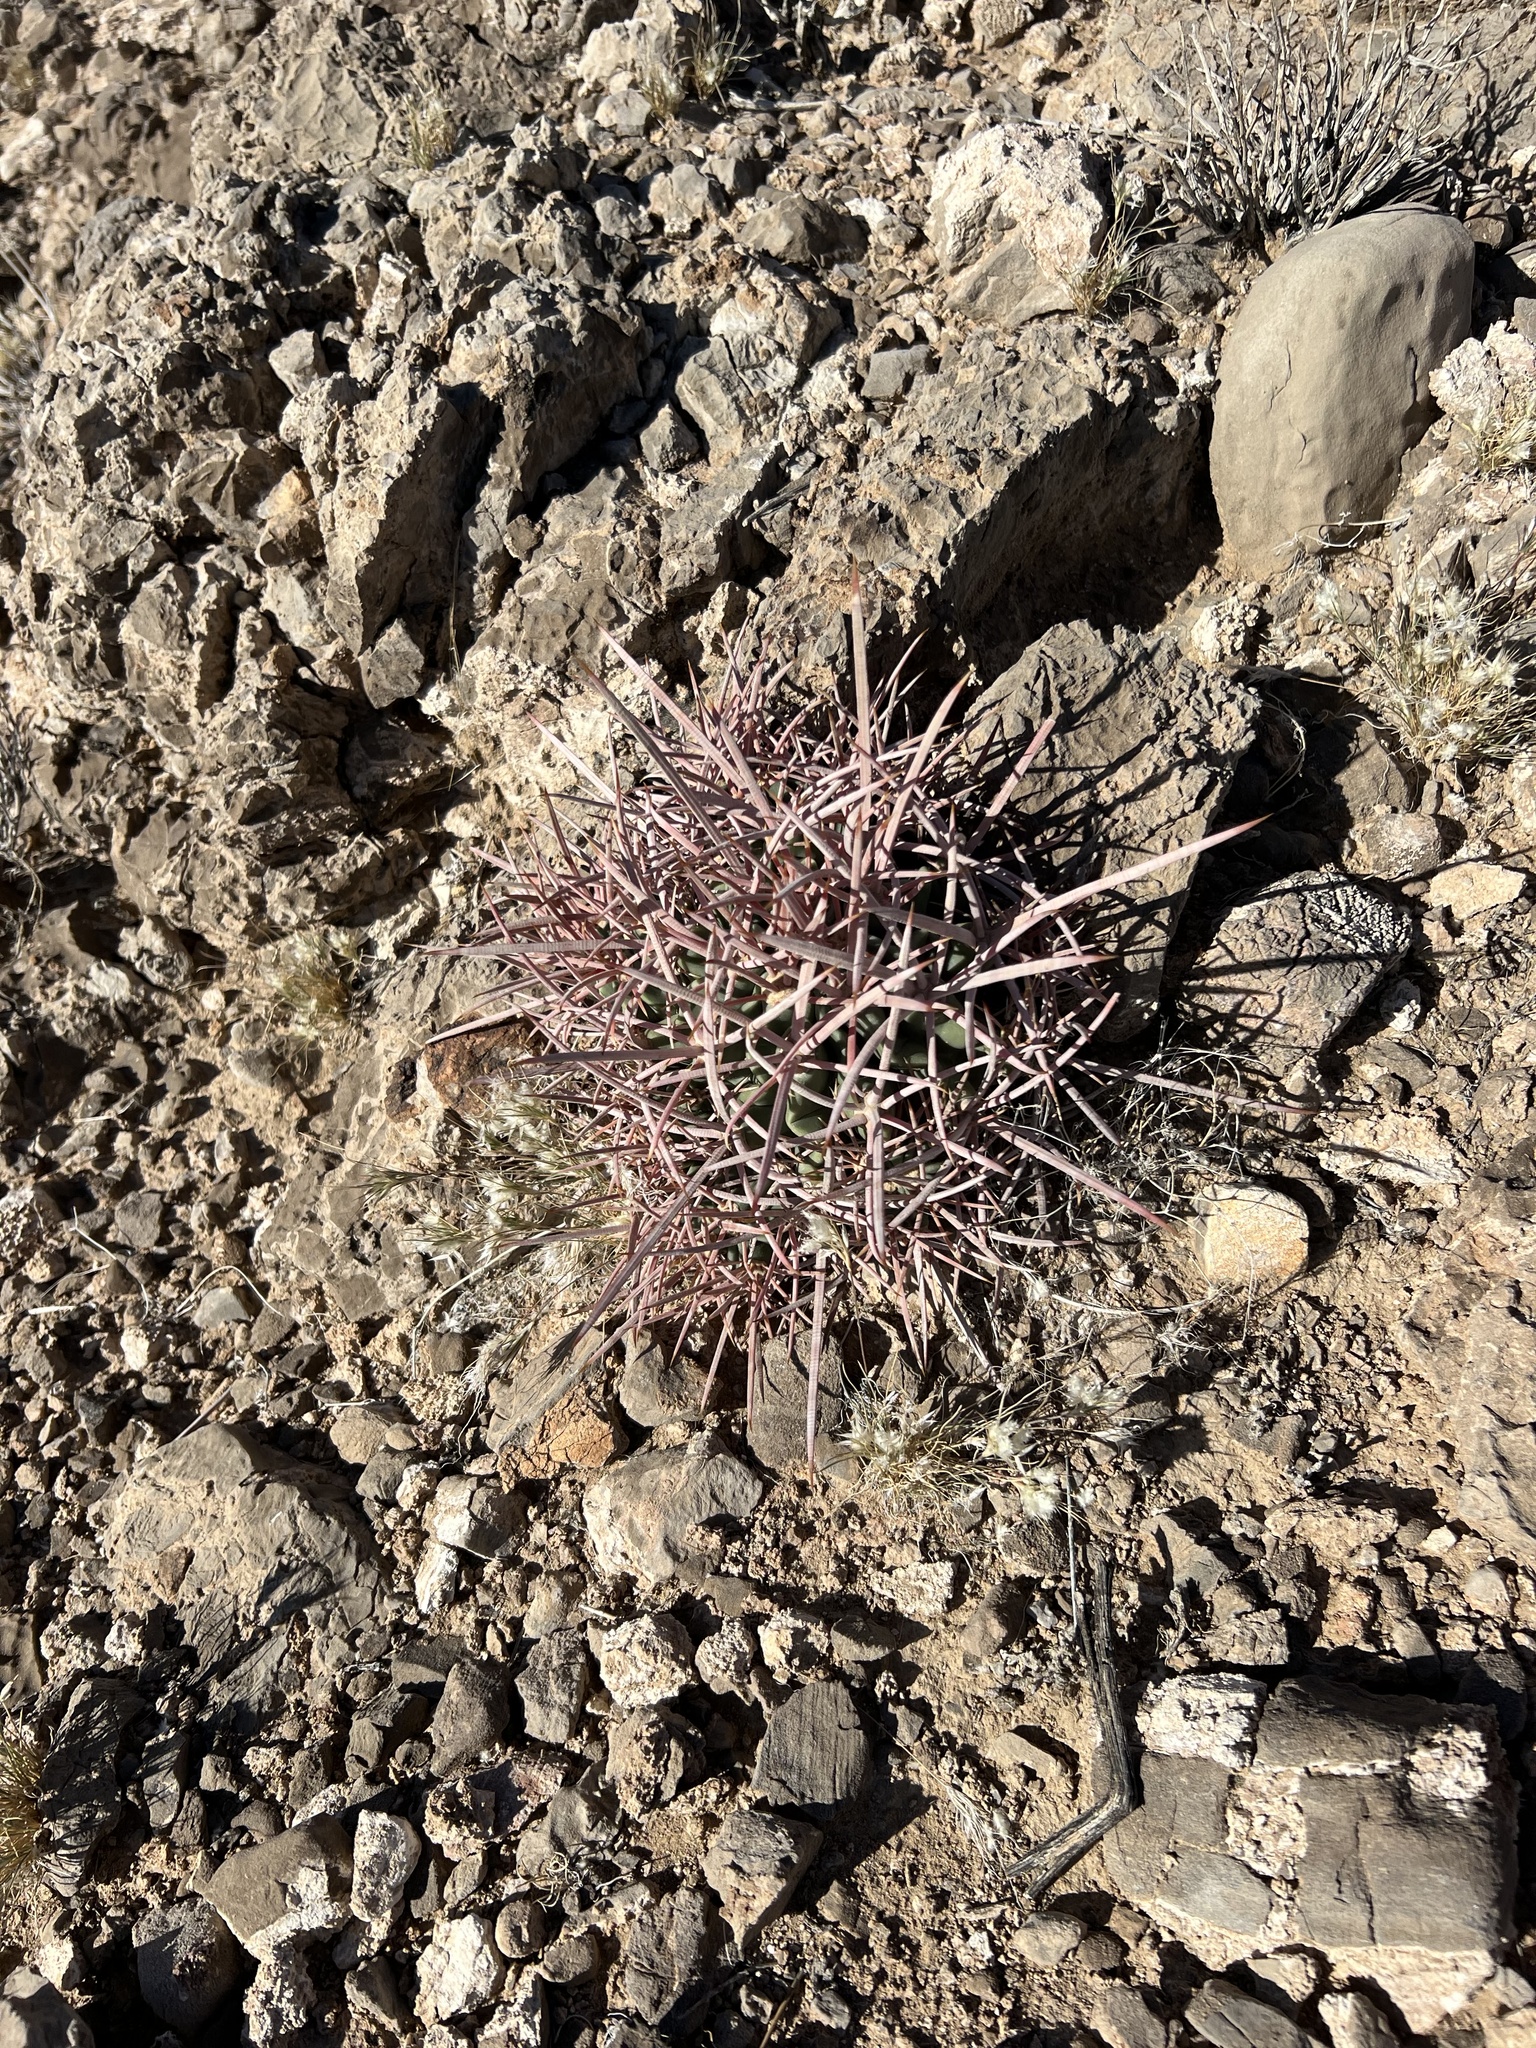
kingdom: Plantae
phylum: Tracheophyta
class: Magnoliopsida
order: Caryophyllales
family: Cactaceae
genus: Echinocactus
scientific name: Echinocactus polycephalus
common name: Cottontop cactus
